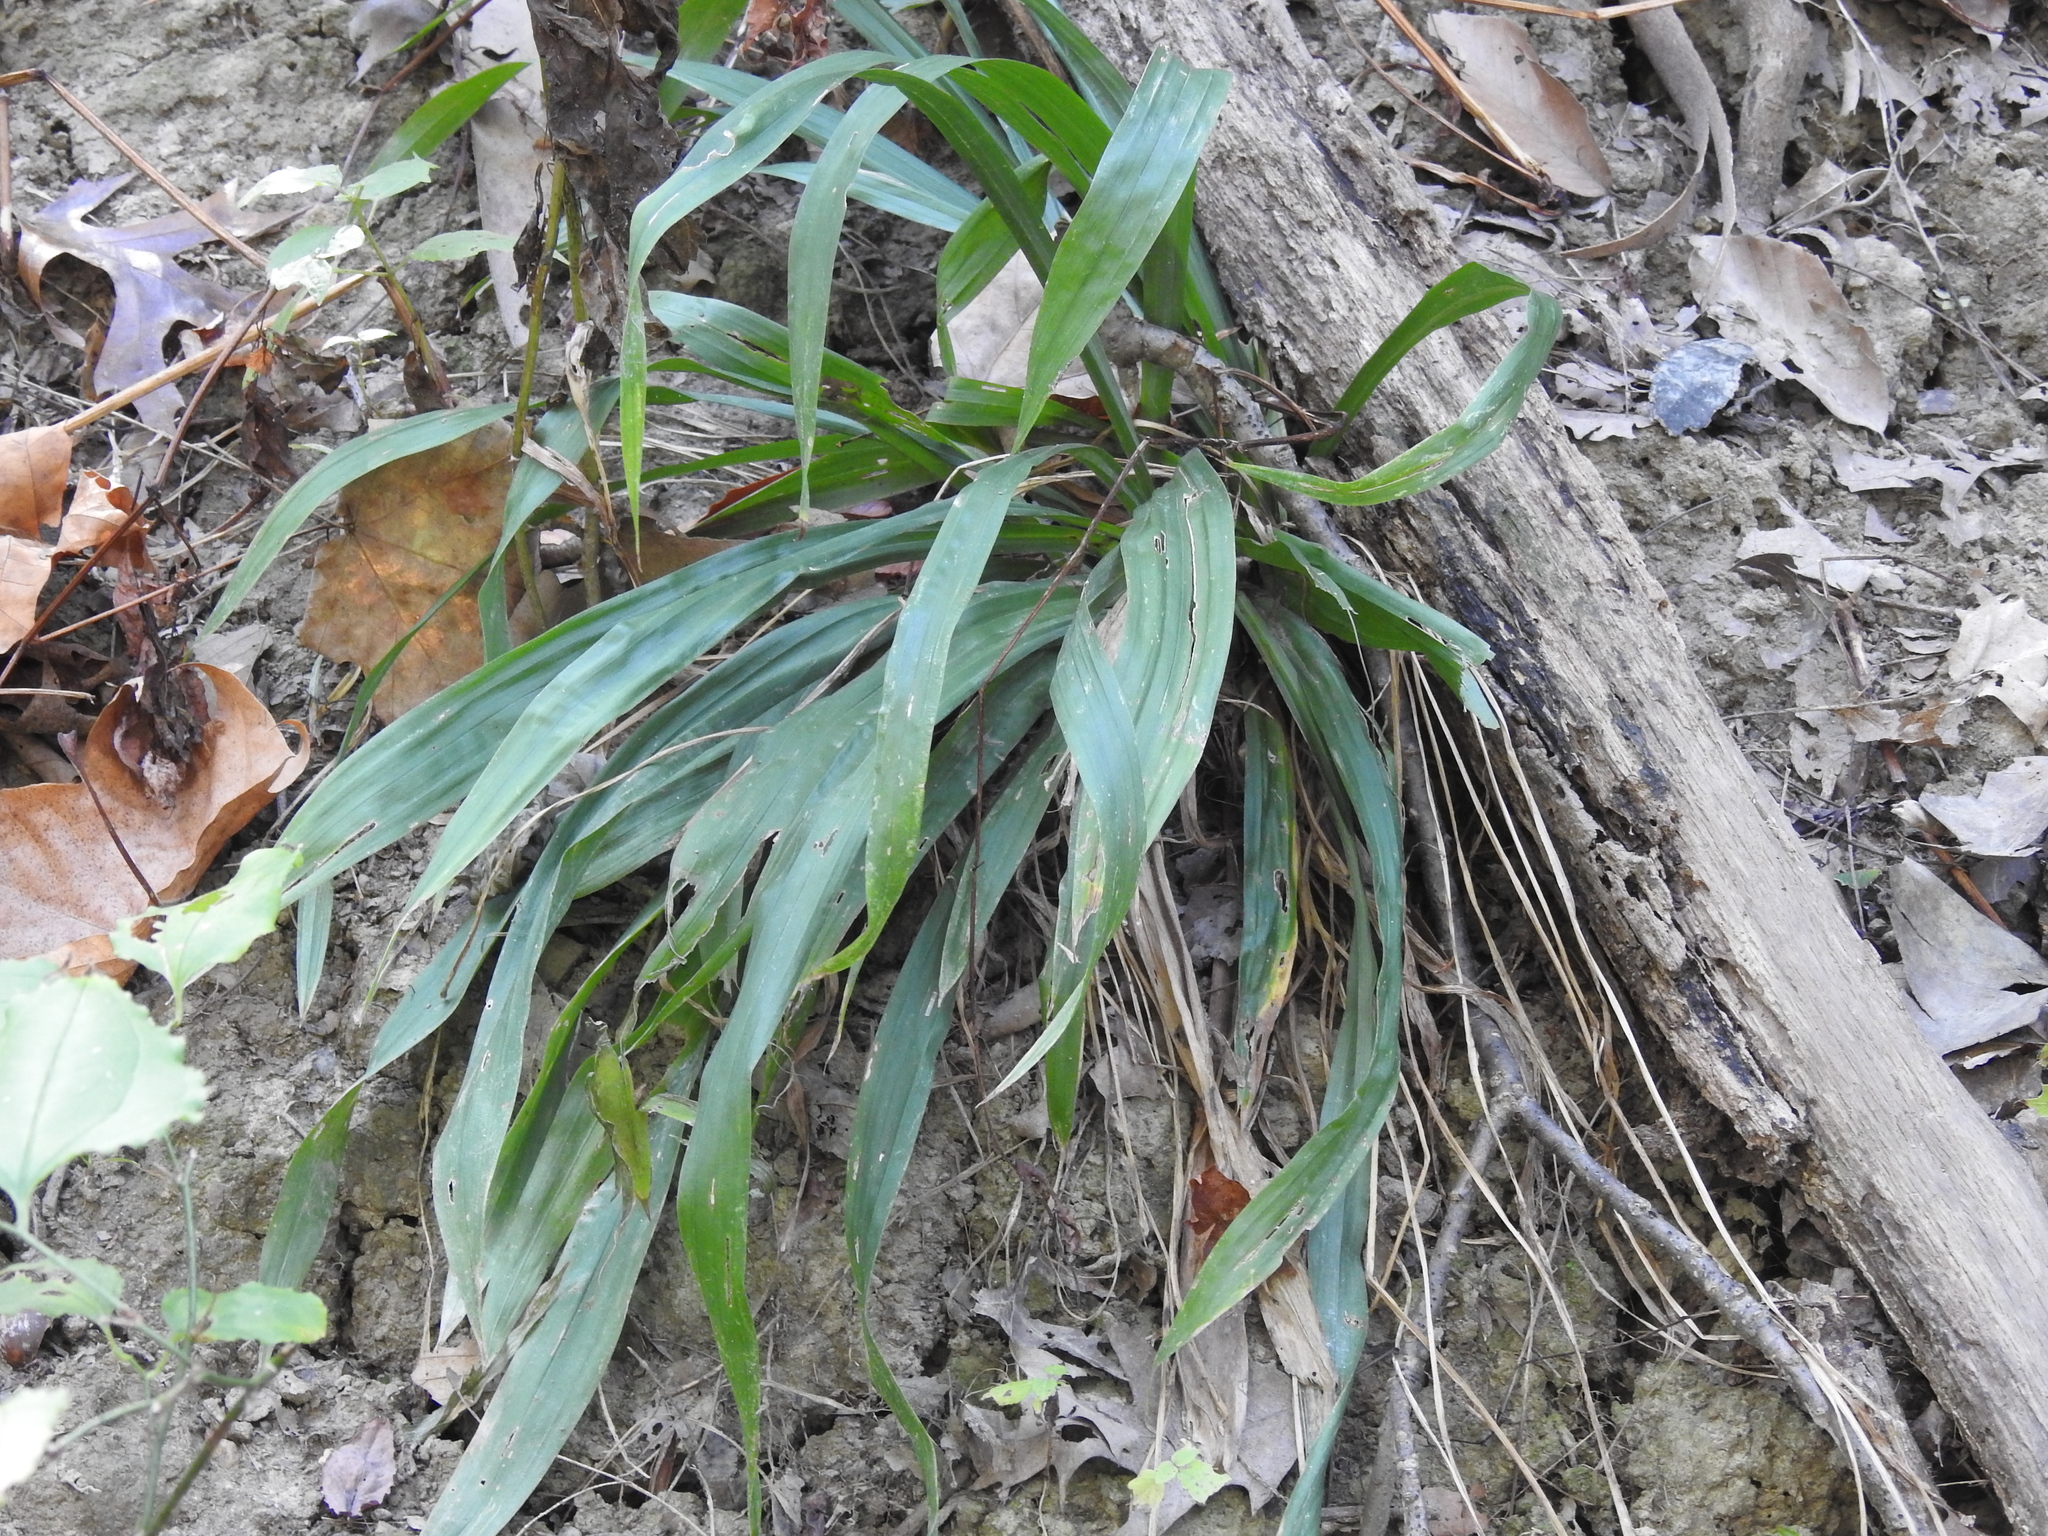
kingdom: Plantae
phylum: Tracheophyta
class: Liliopsida
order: Poales
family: Cyperaceae
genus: Carex
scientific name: Carex albursina
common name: Blunt-scale wood sedge
